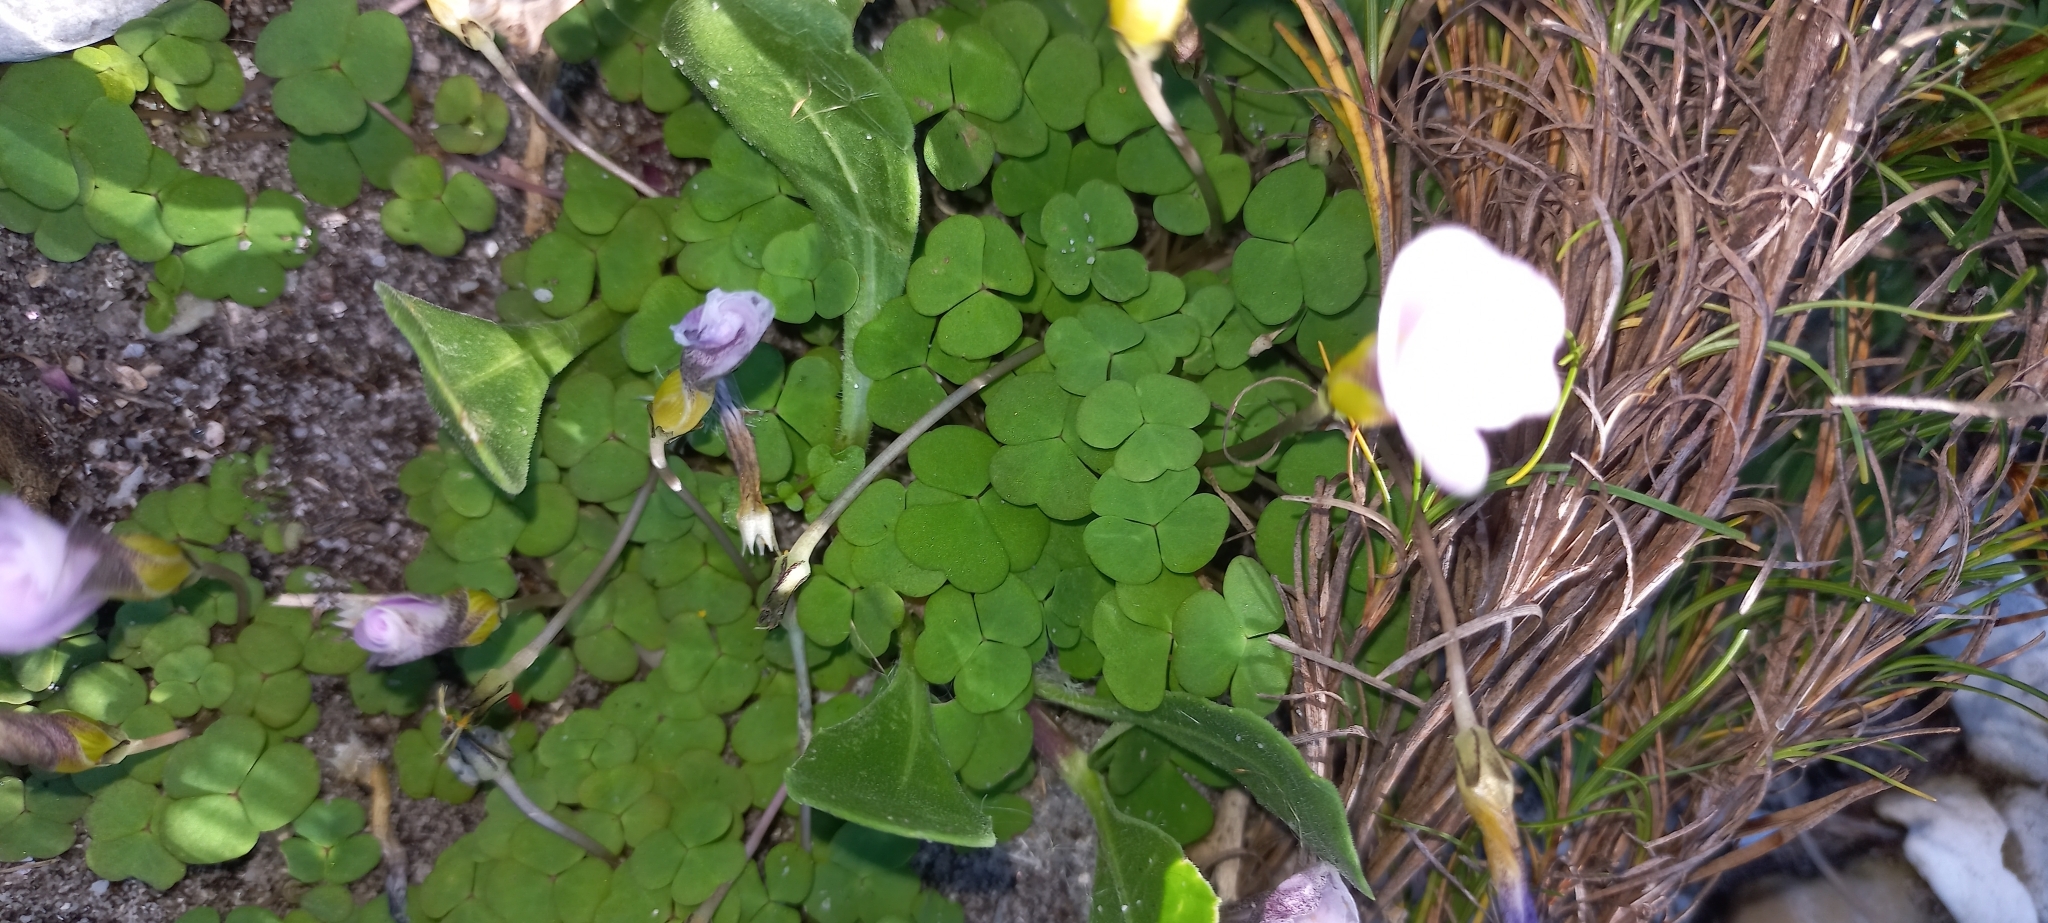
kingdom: Plantae
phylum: Tracheophyta
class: Magnoliopsida
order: Oxalidales
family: Oxalidaceae
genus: Oxalis
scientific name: Oxalis depressa
